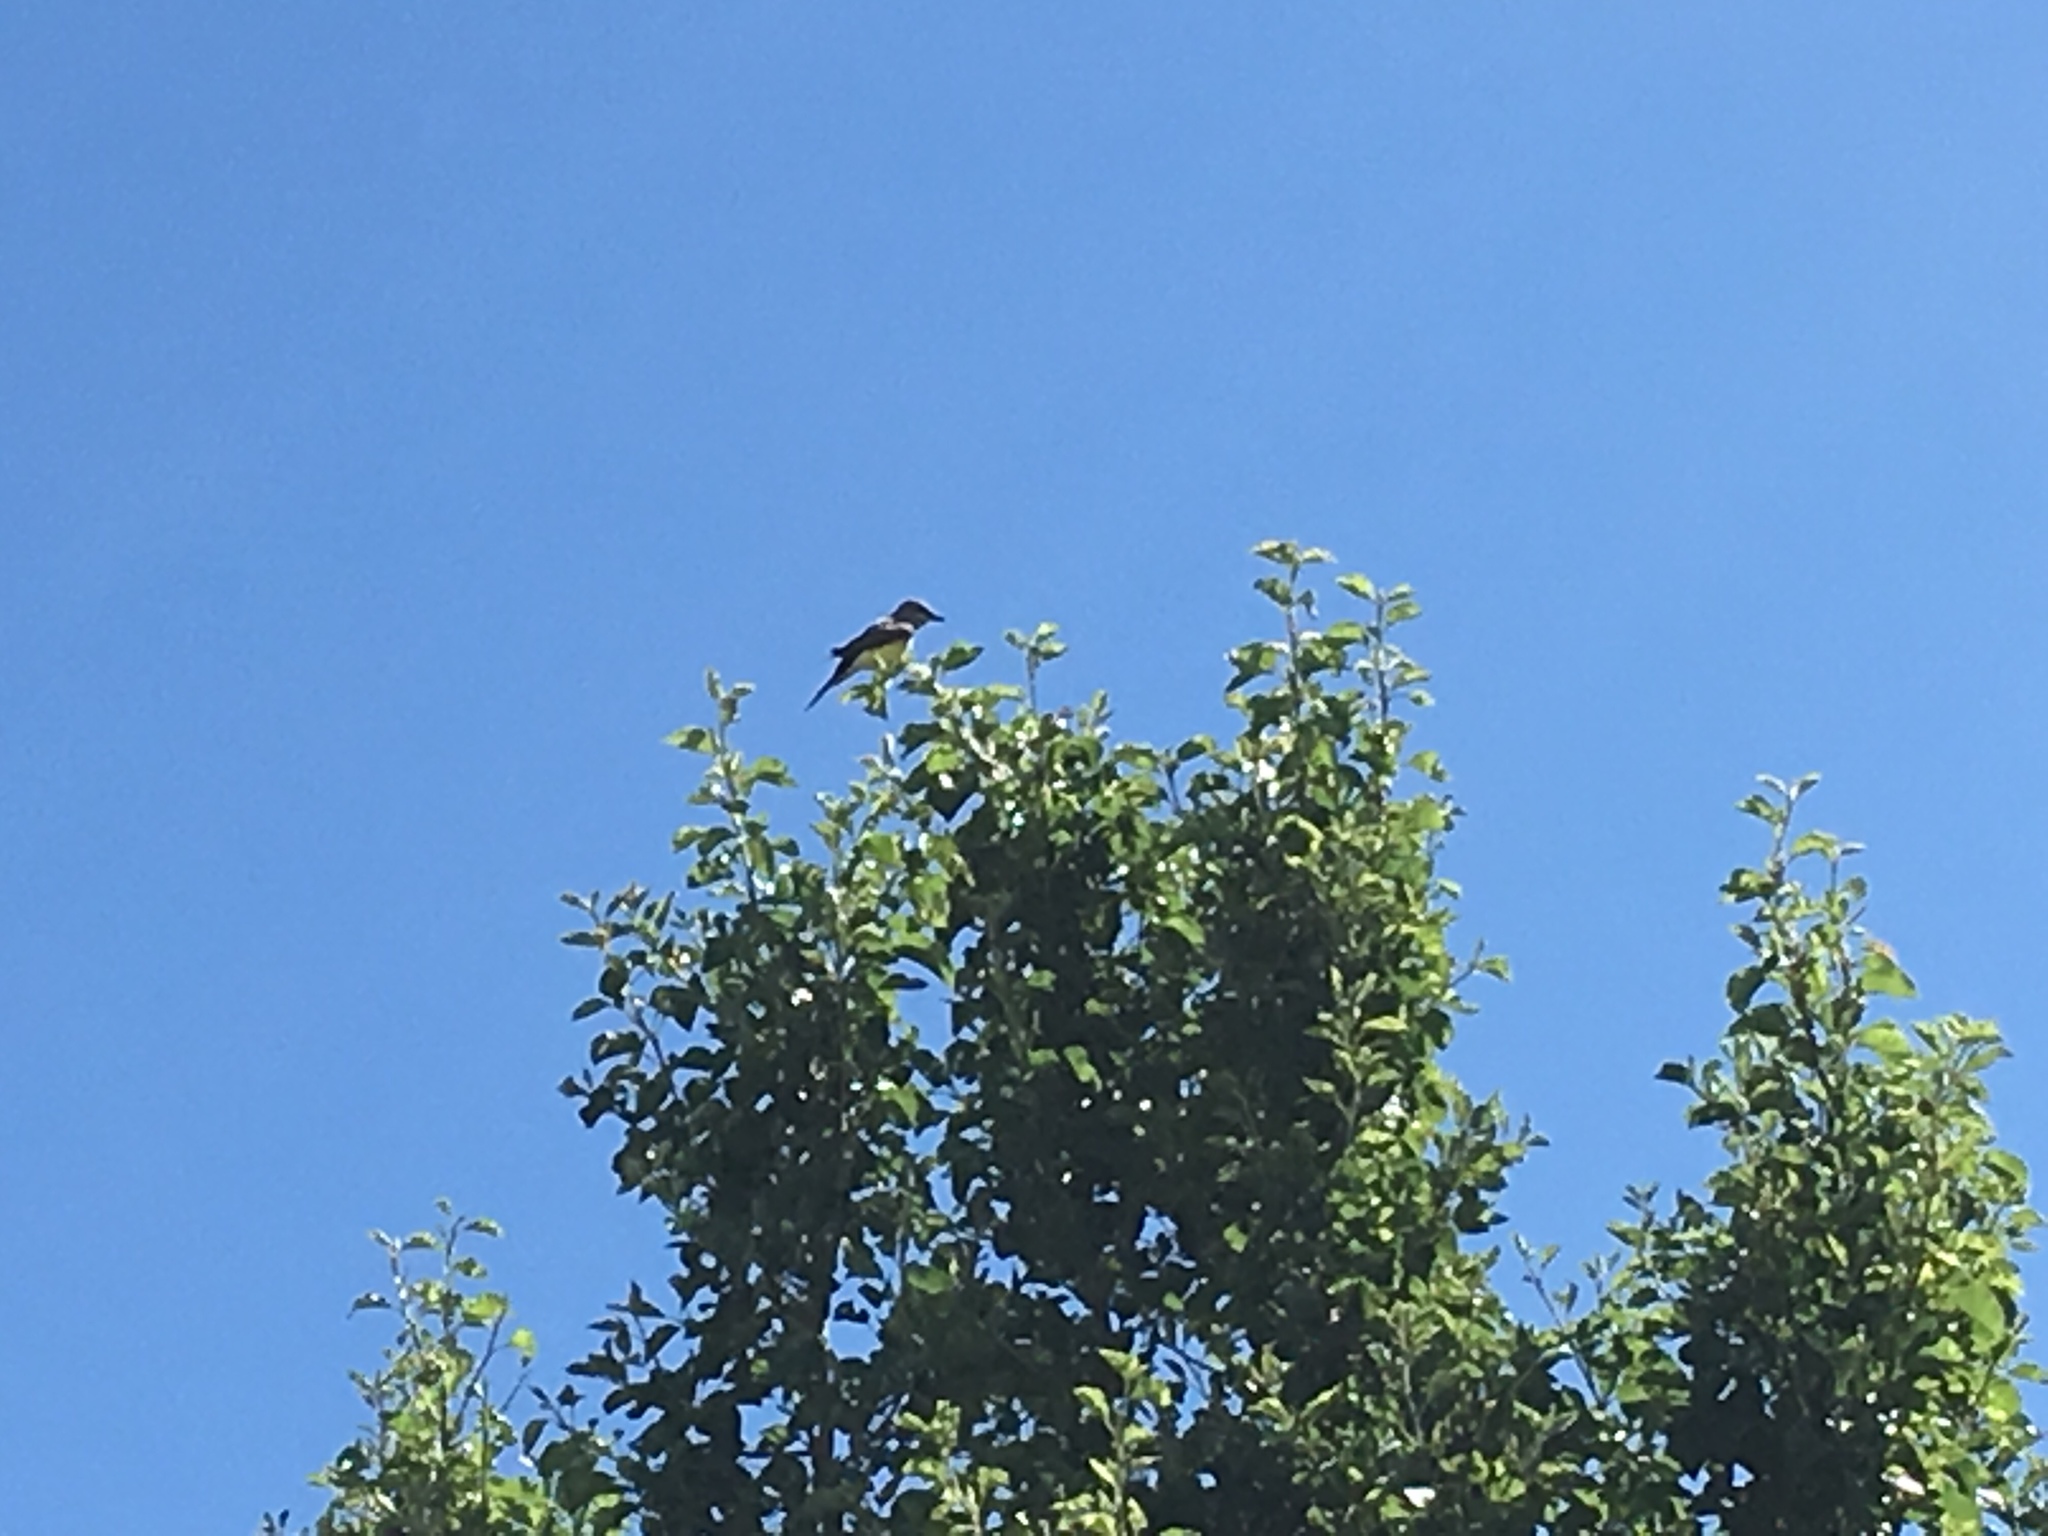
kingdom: Animalia
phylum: Chordata
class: Aves
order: Passeriformes
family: Tyrannidae
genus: Tyrannus
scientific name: Tyrannus verticalis
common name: Western kingbird
